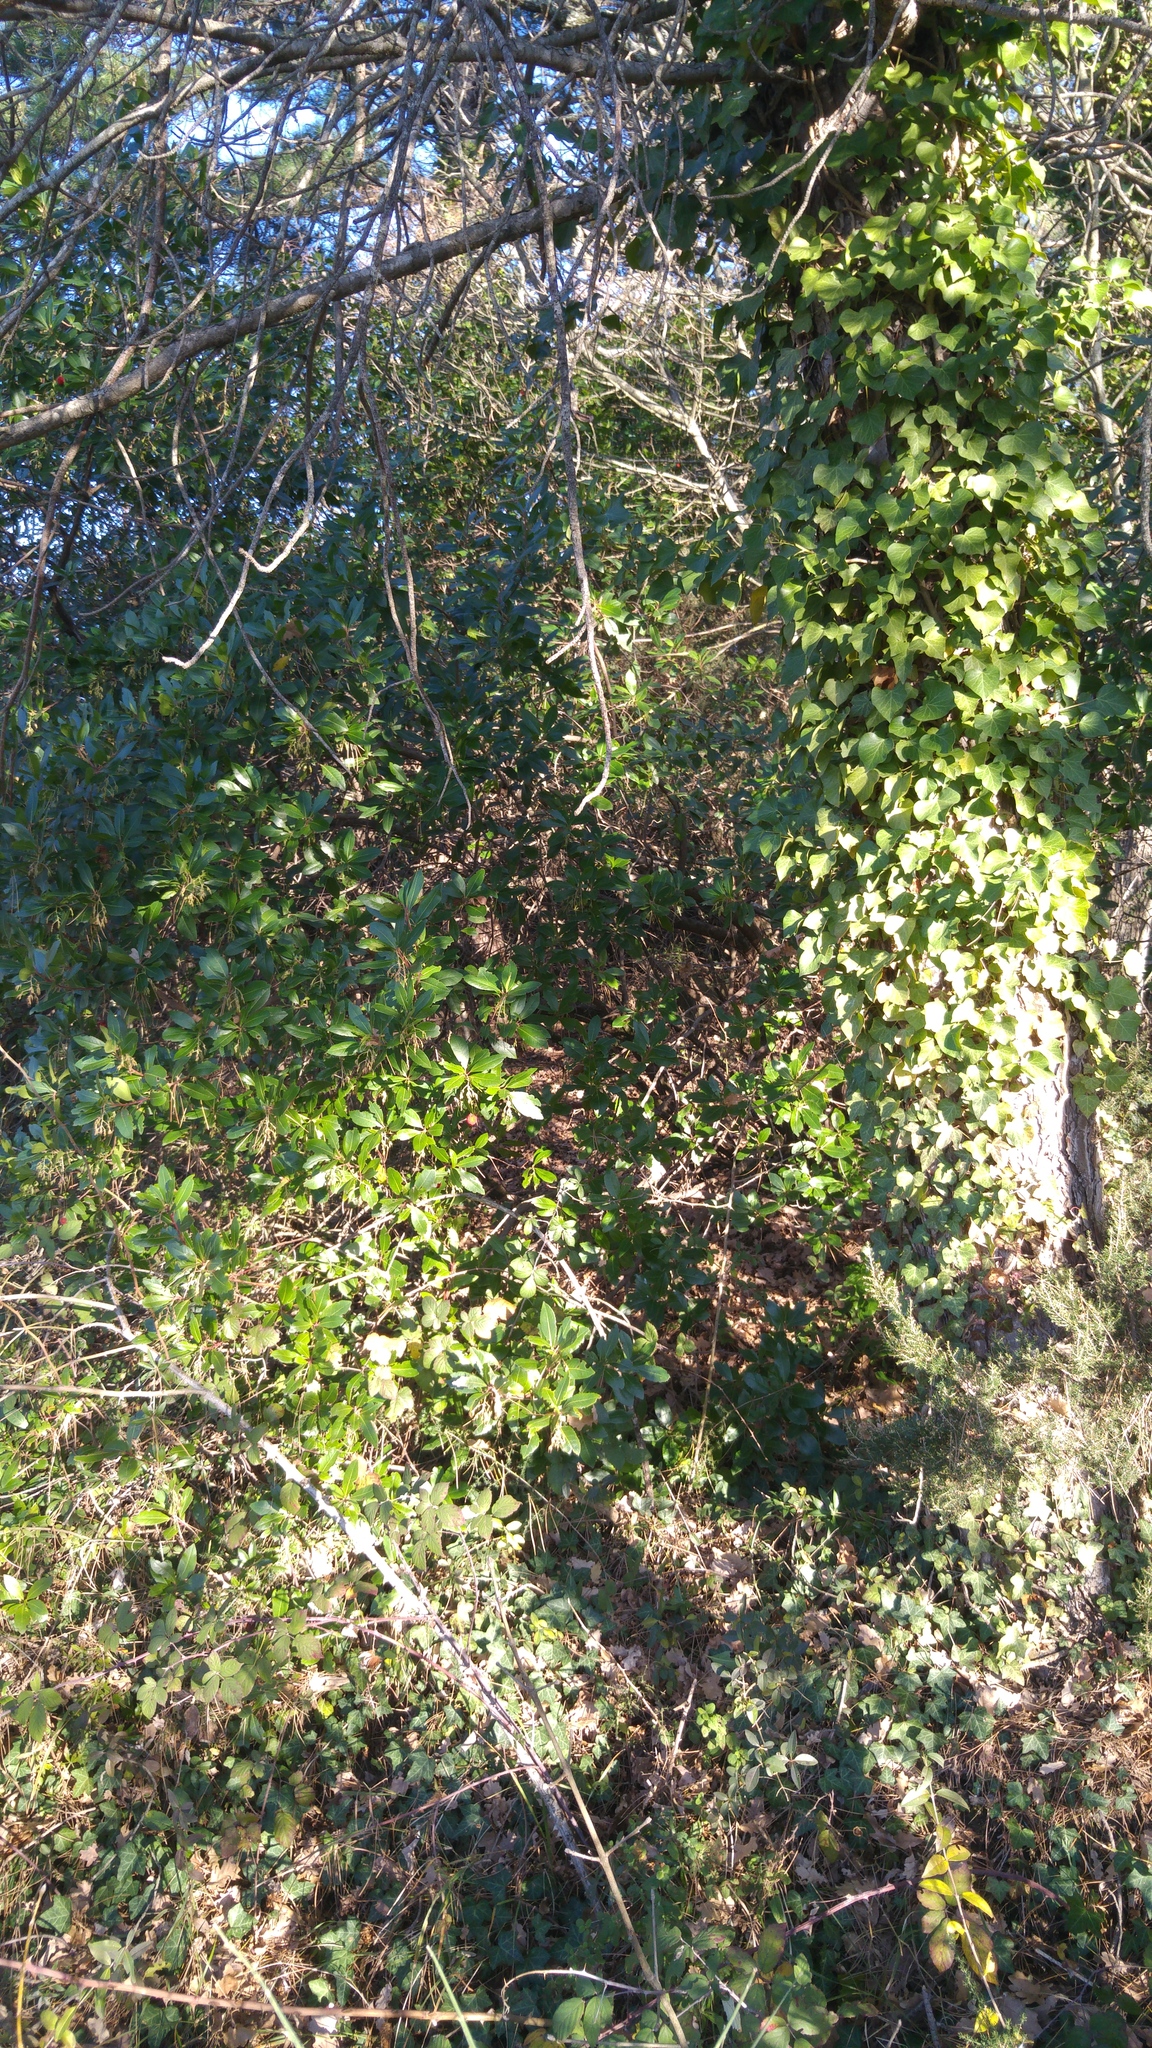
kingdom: Plantae
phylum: Tracheophyta
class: Magnoliopsida
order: Ericales
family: Ericaceae
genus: Arbutus
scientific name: Arbutus unedo
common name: Strawberry-tree
